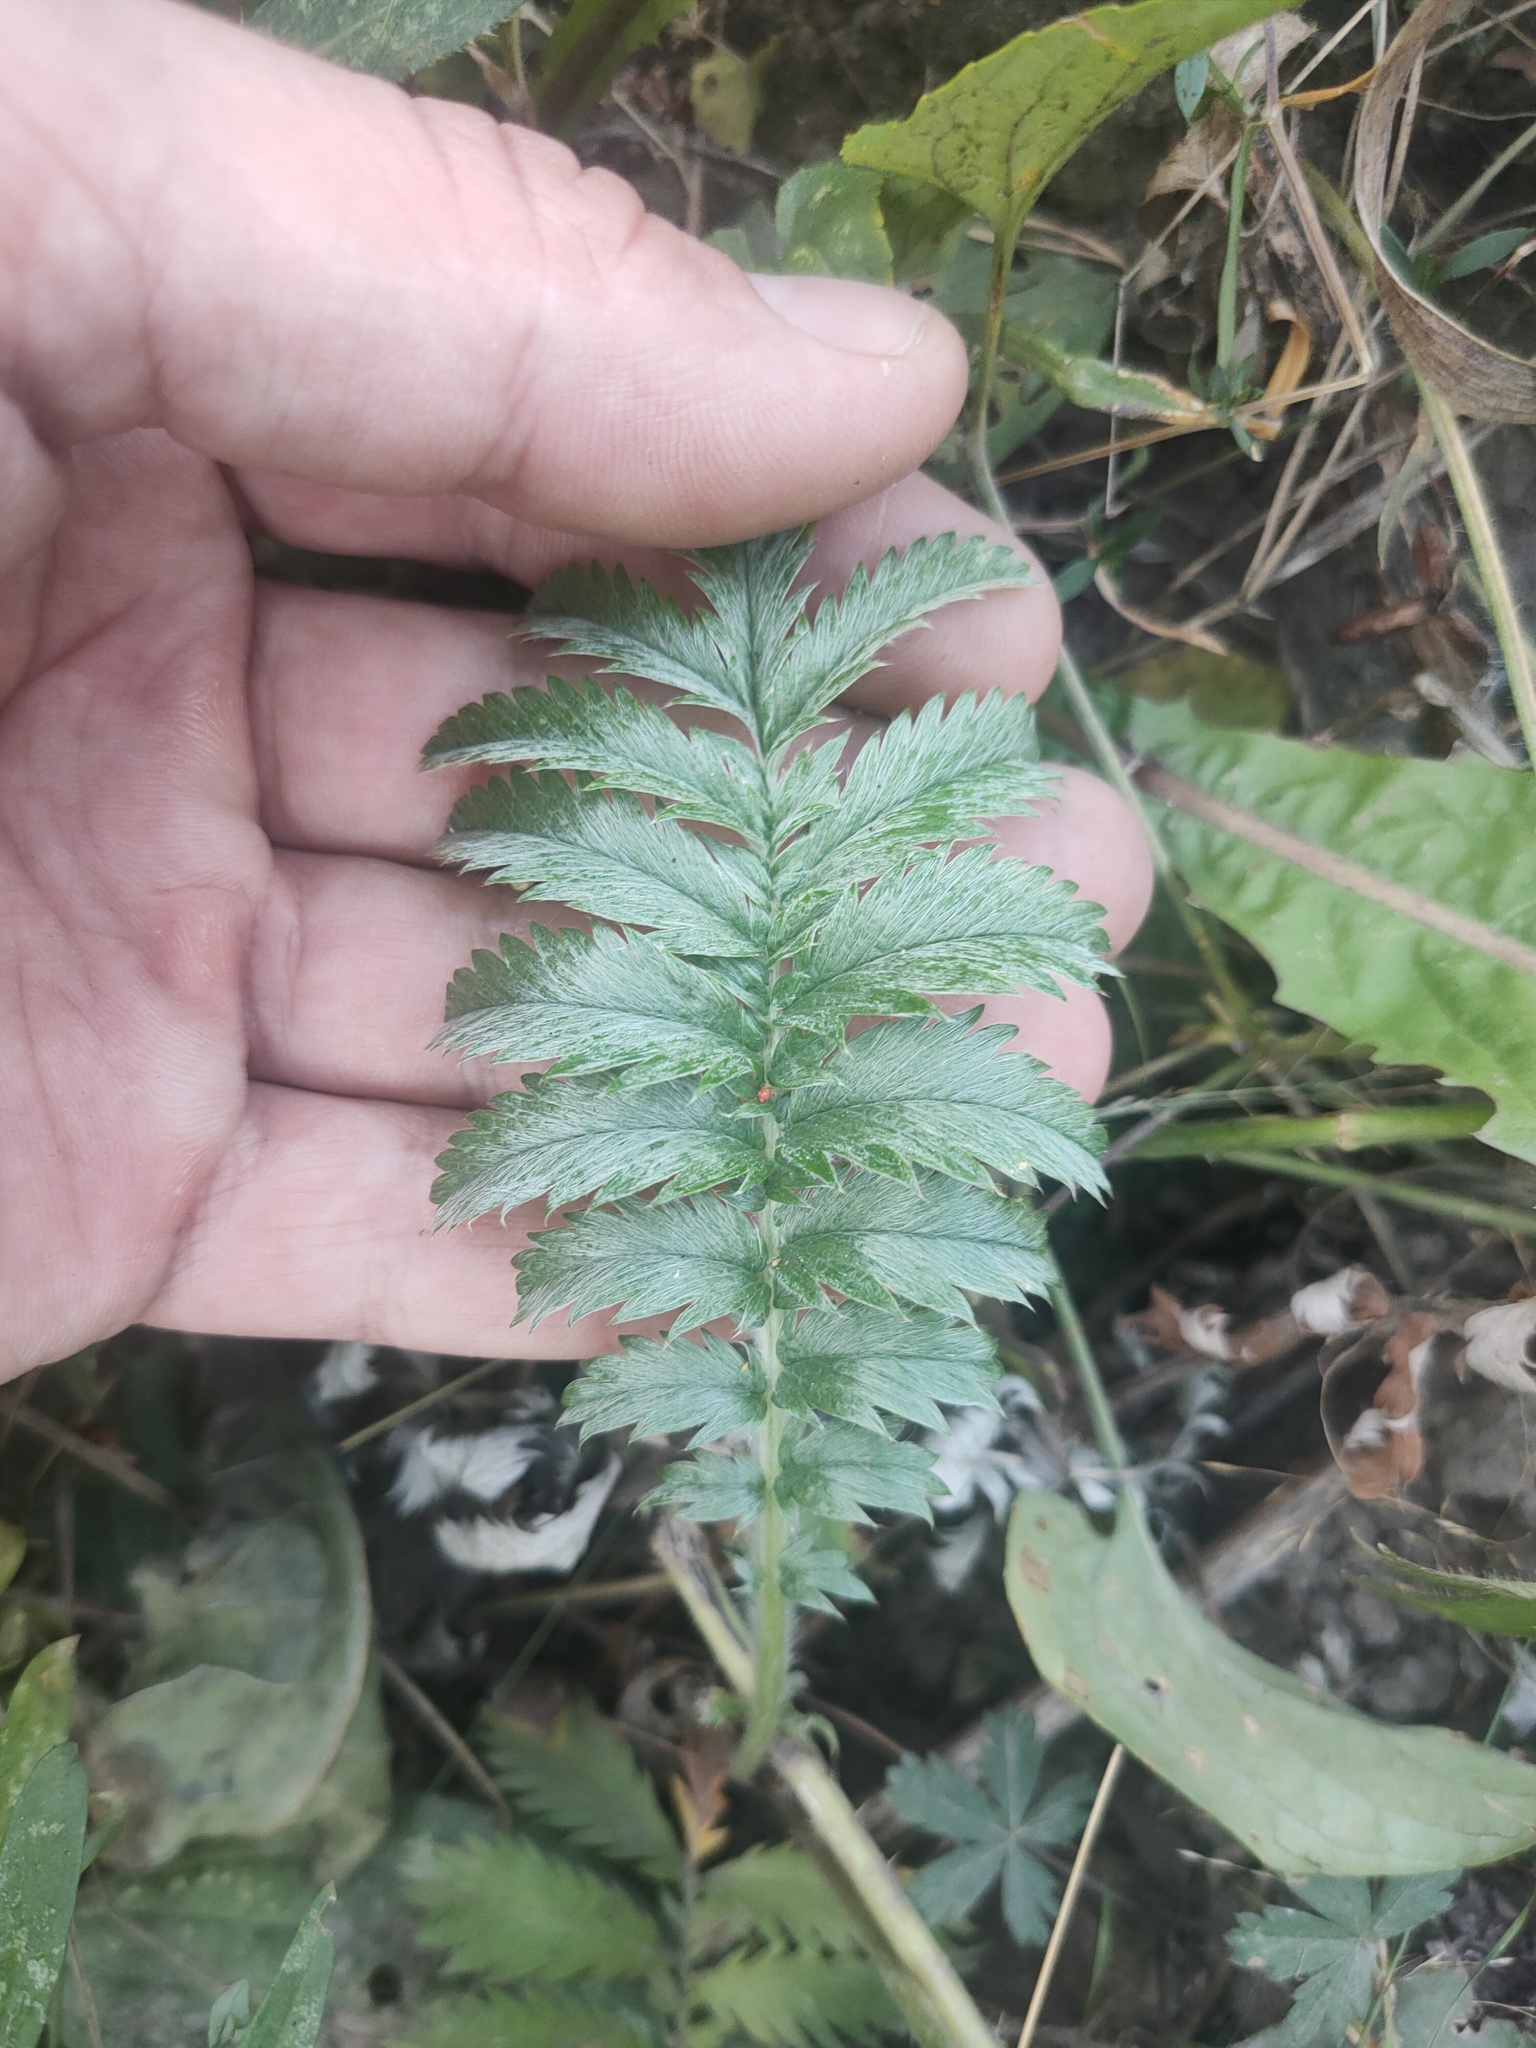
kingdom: Plantae
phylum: Tracheophyta
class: Magnoliopsida
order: Rosales
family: Rosaceae
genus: Argentina
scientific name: Argentina anserina
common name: Common silverweed
